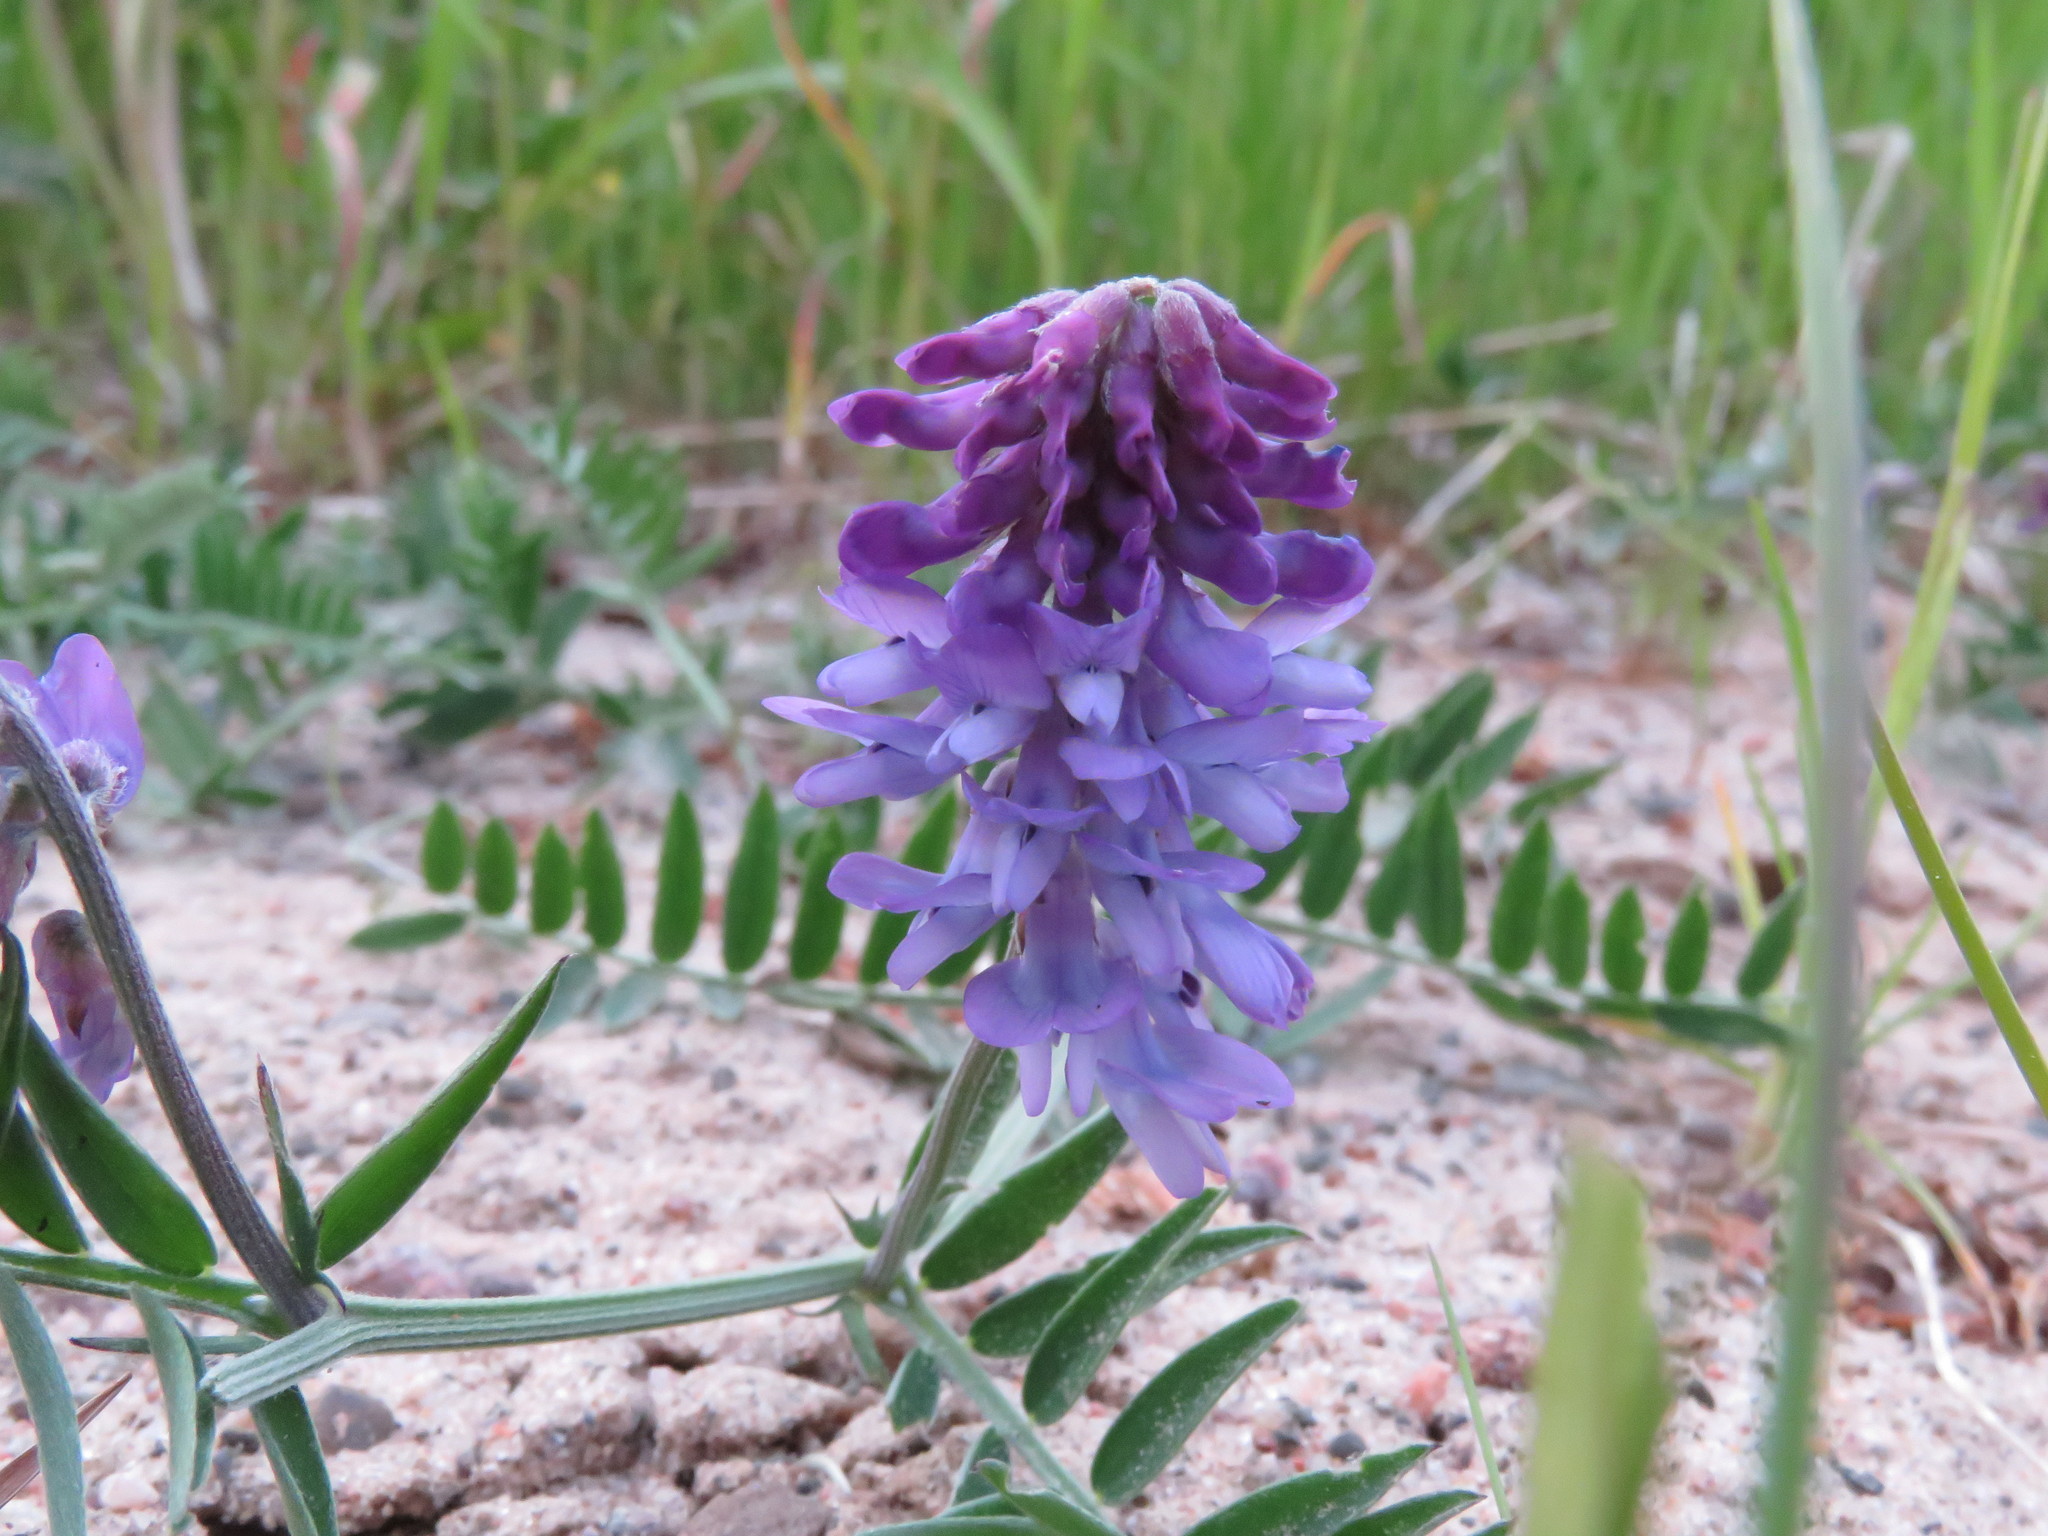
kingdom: Plantae
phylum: Tracheophyta
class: Magnoliopsida
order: Fabales
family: Fabaceae
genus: Vicia
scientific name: Vicia cracca
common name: Bird vetch
